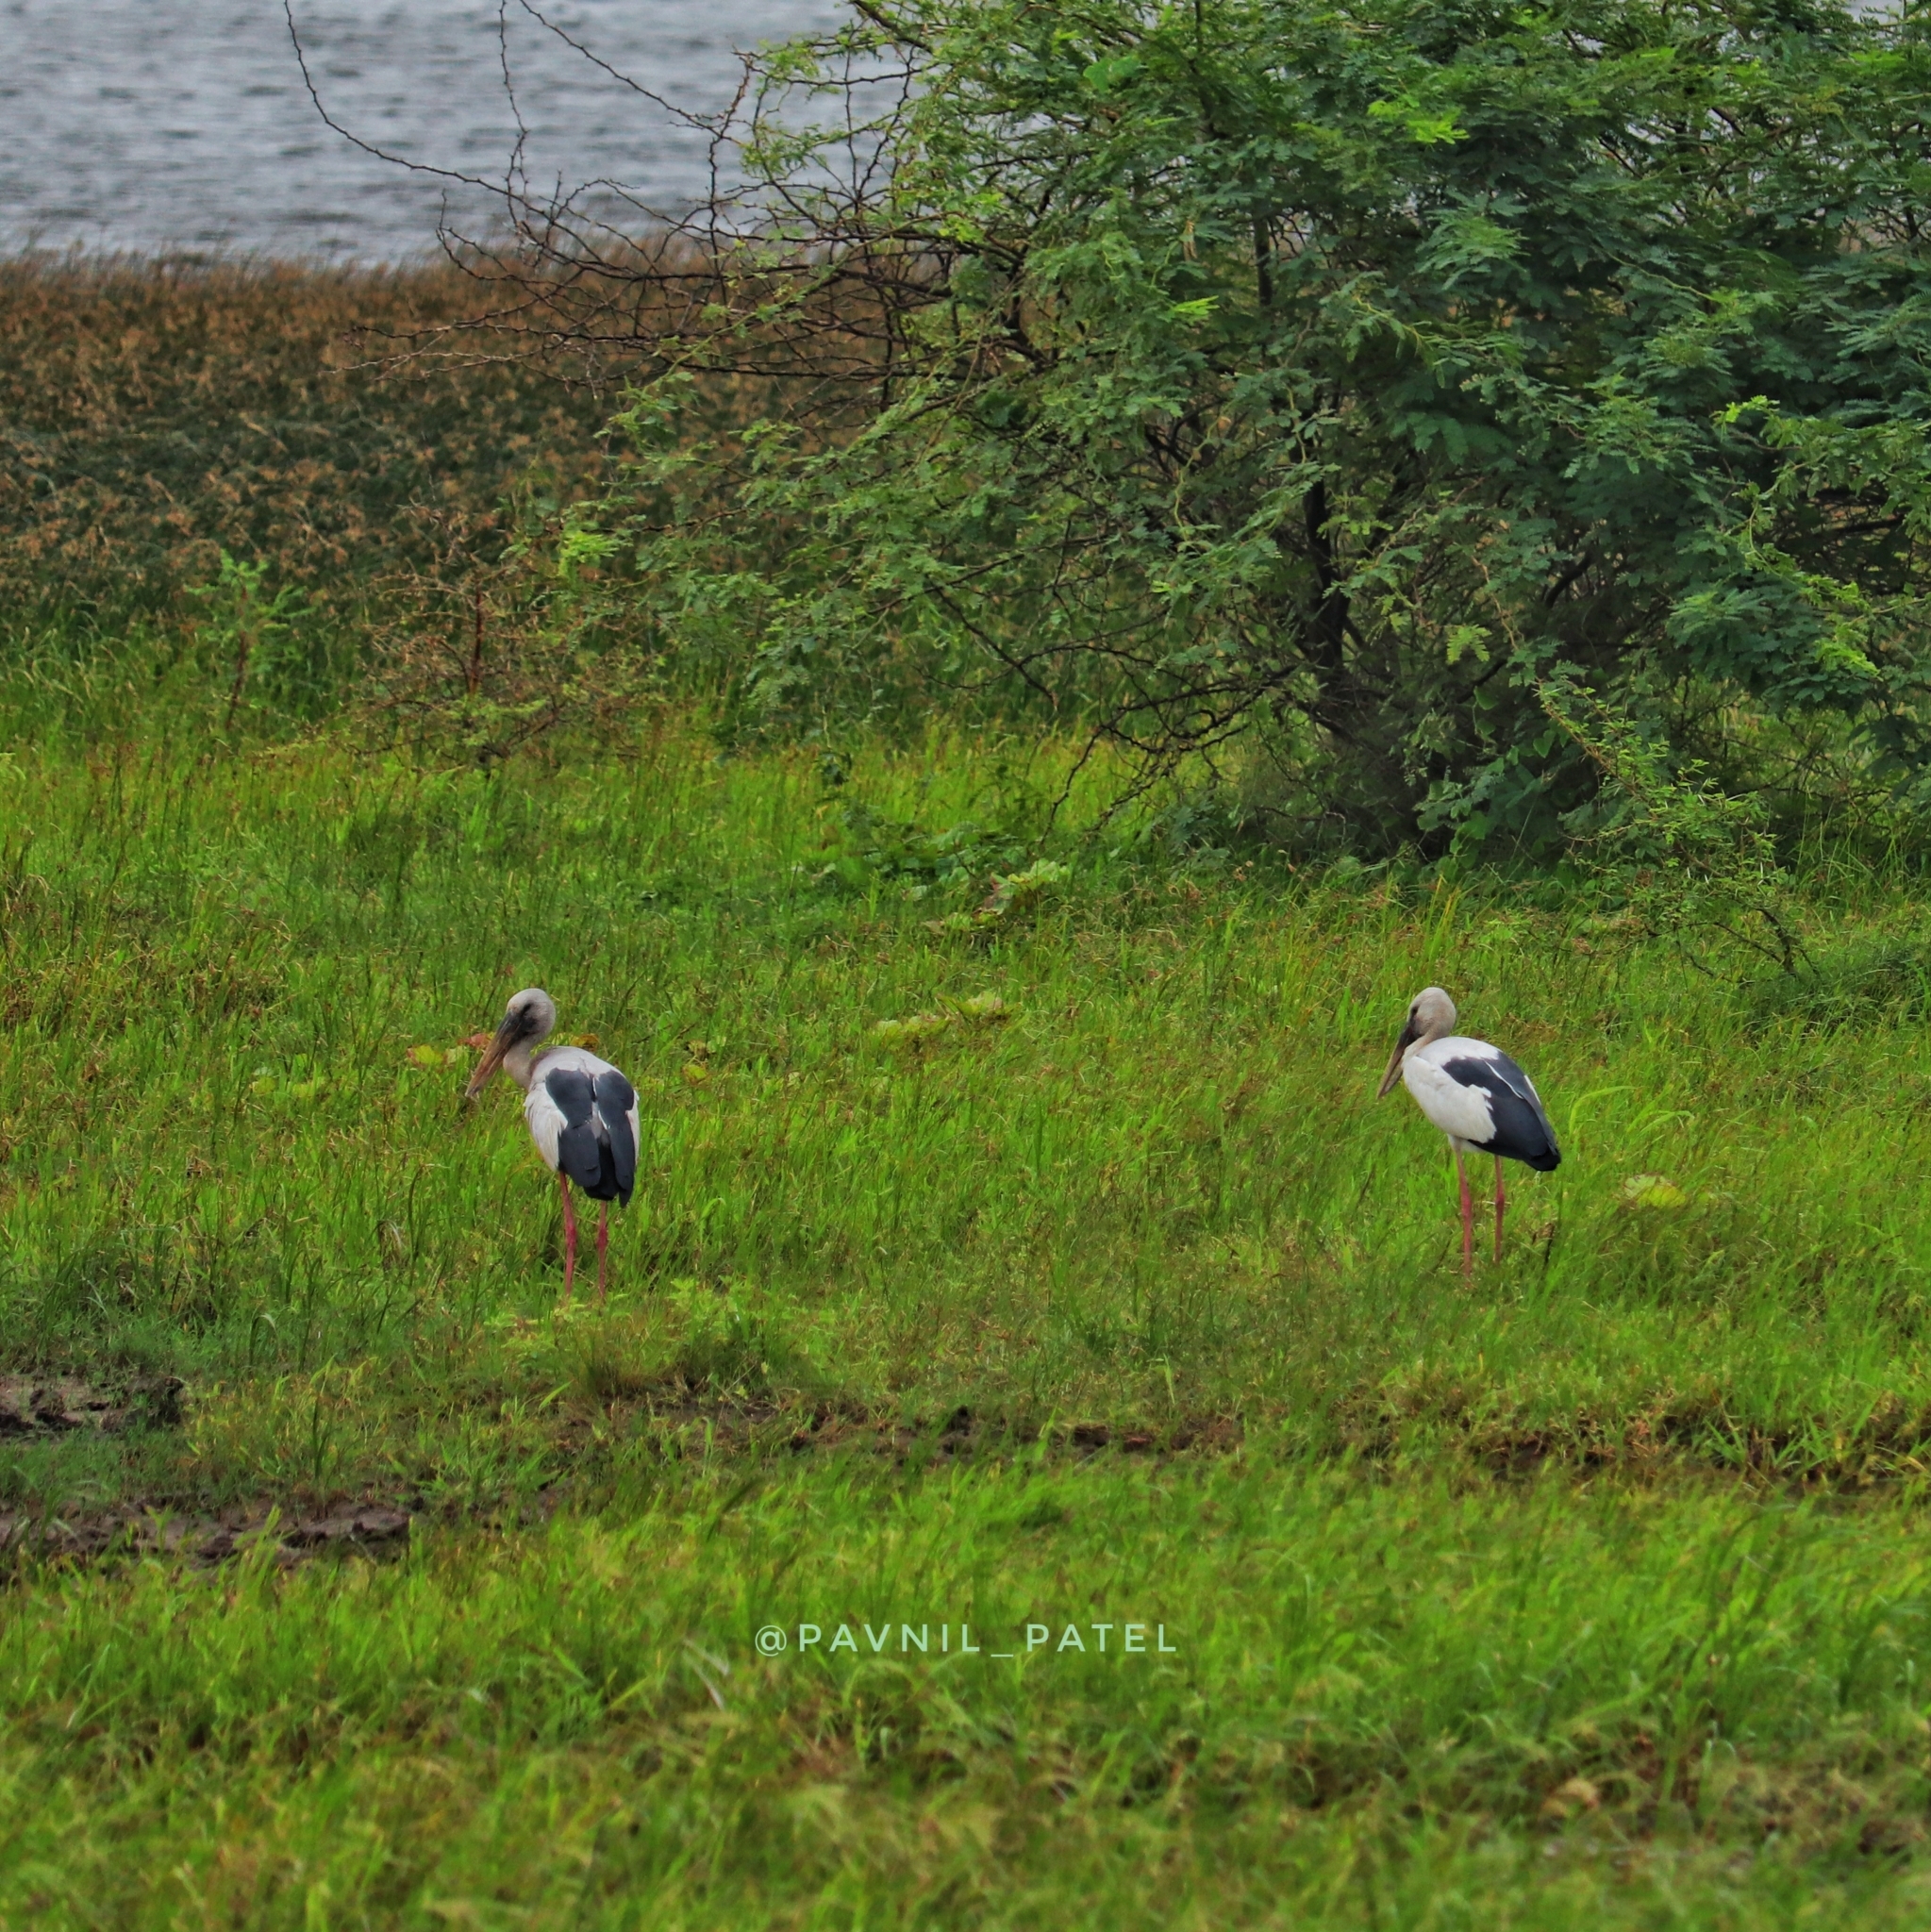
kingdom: Animalia
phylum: Chordata
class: Aves
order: Ciconiiformes
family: Ciconiidae
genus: Anastomus
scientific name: Anastomus oscitans
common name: Asian openbill
